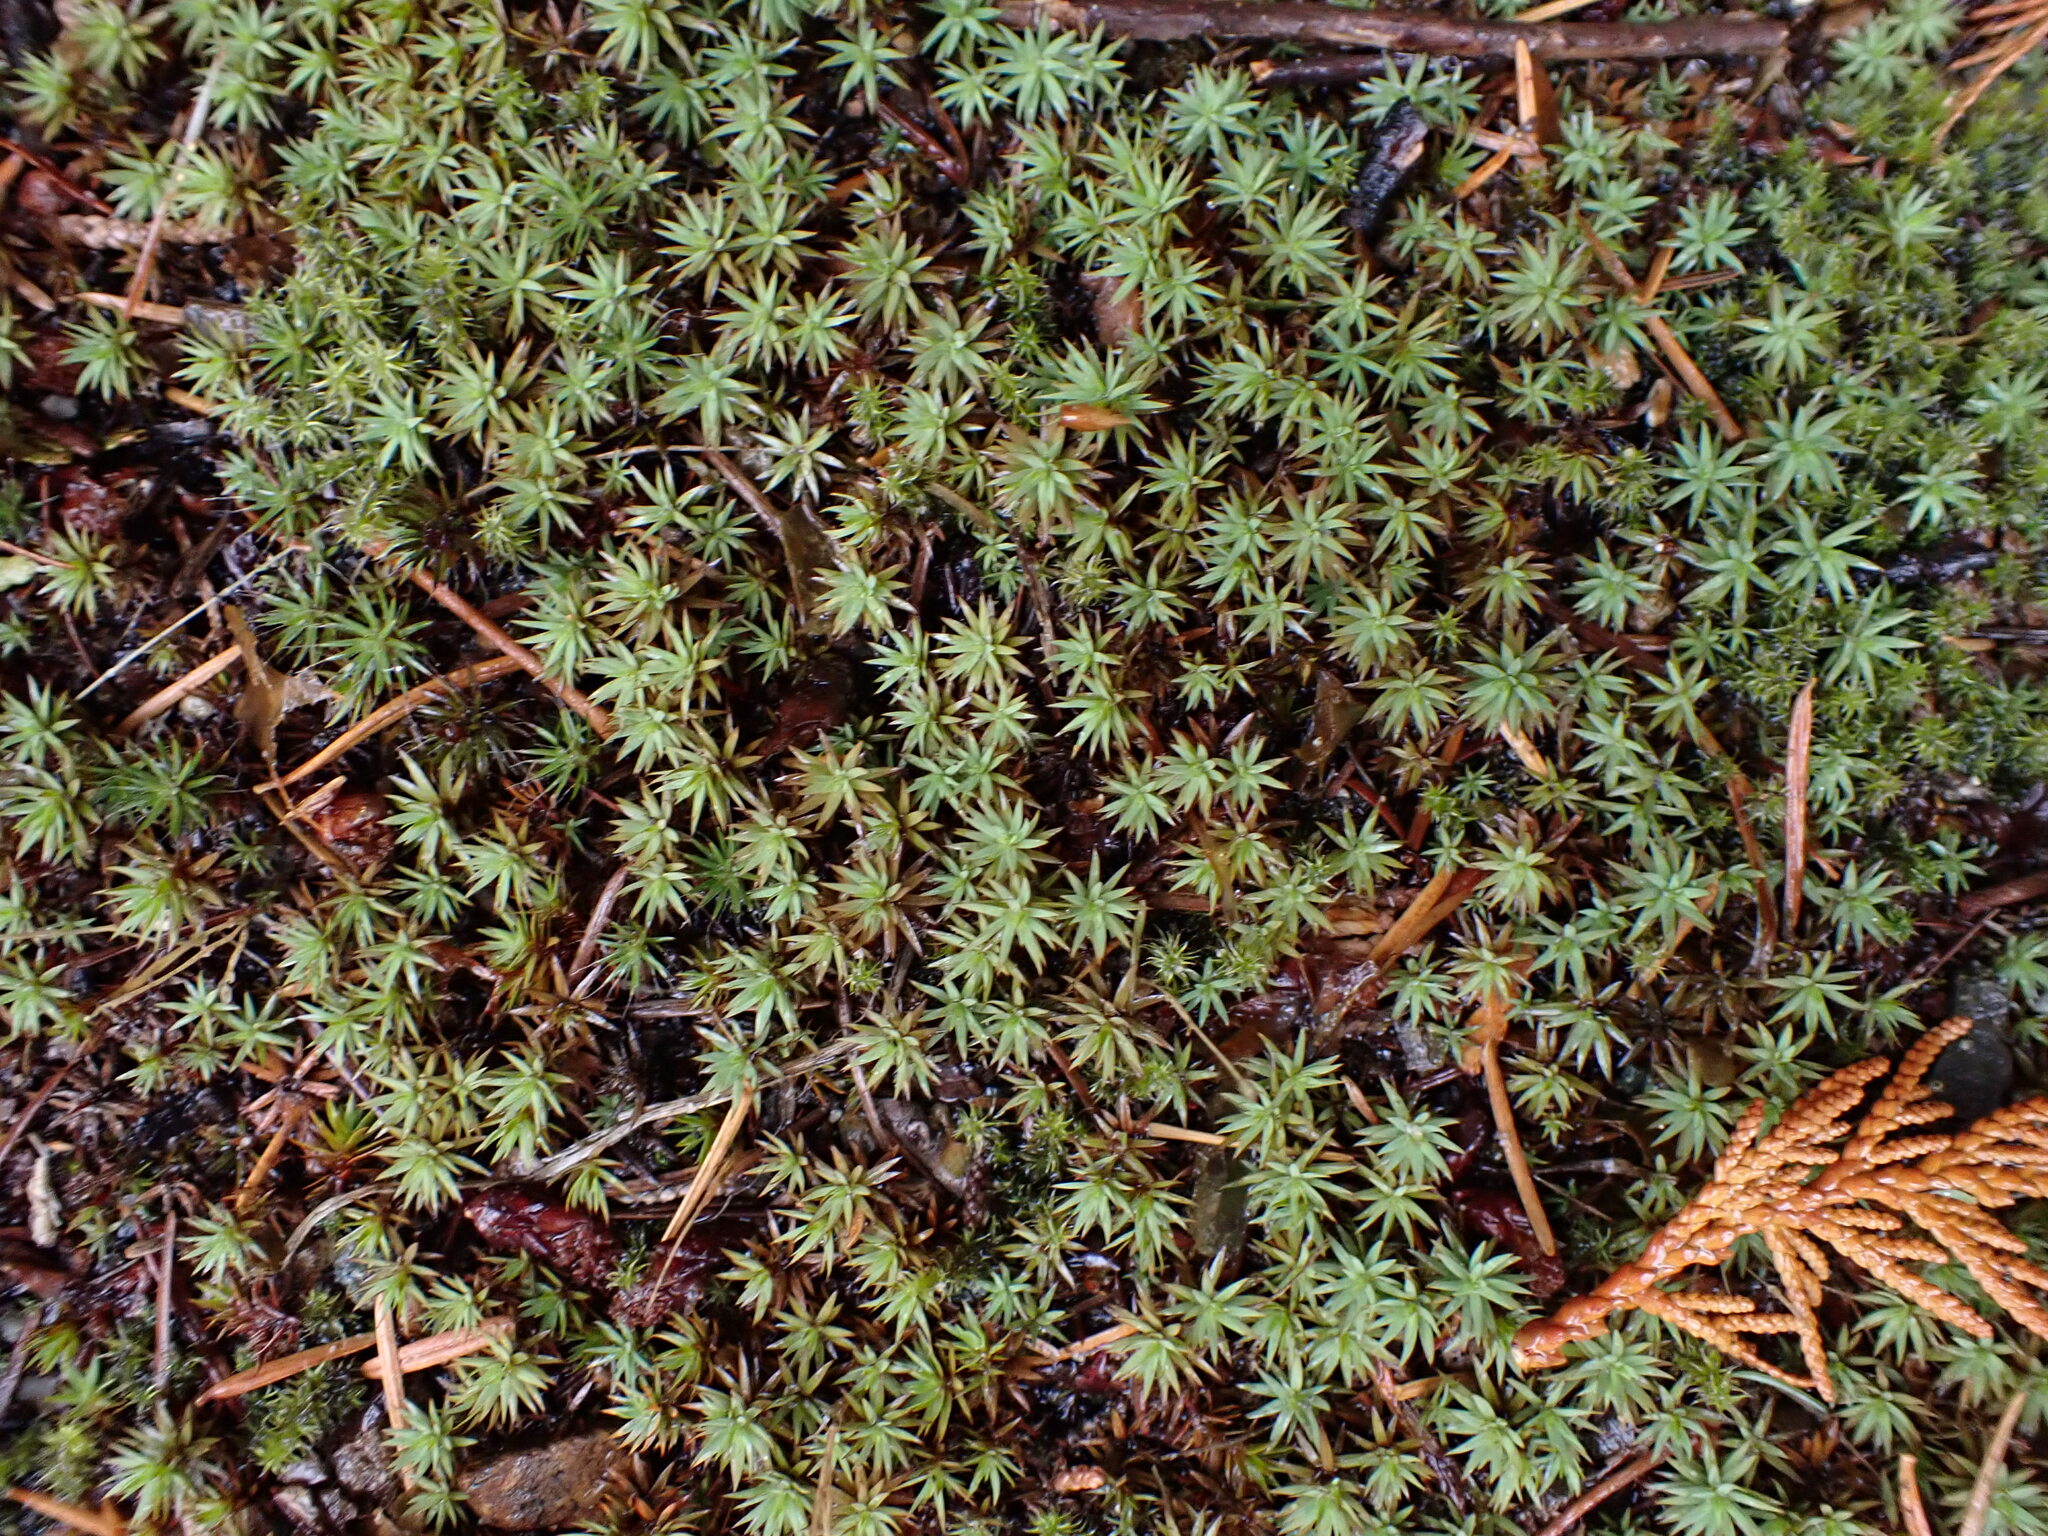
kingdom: Plantae
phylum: Bryophyta
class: Polytrichopsida
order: Polytrichales
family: Polytrichaceae
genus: Pogonatum
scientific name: Pogonatum urnigerum
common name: Urn hair moss
